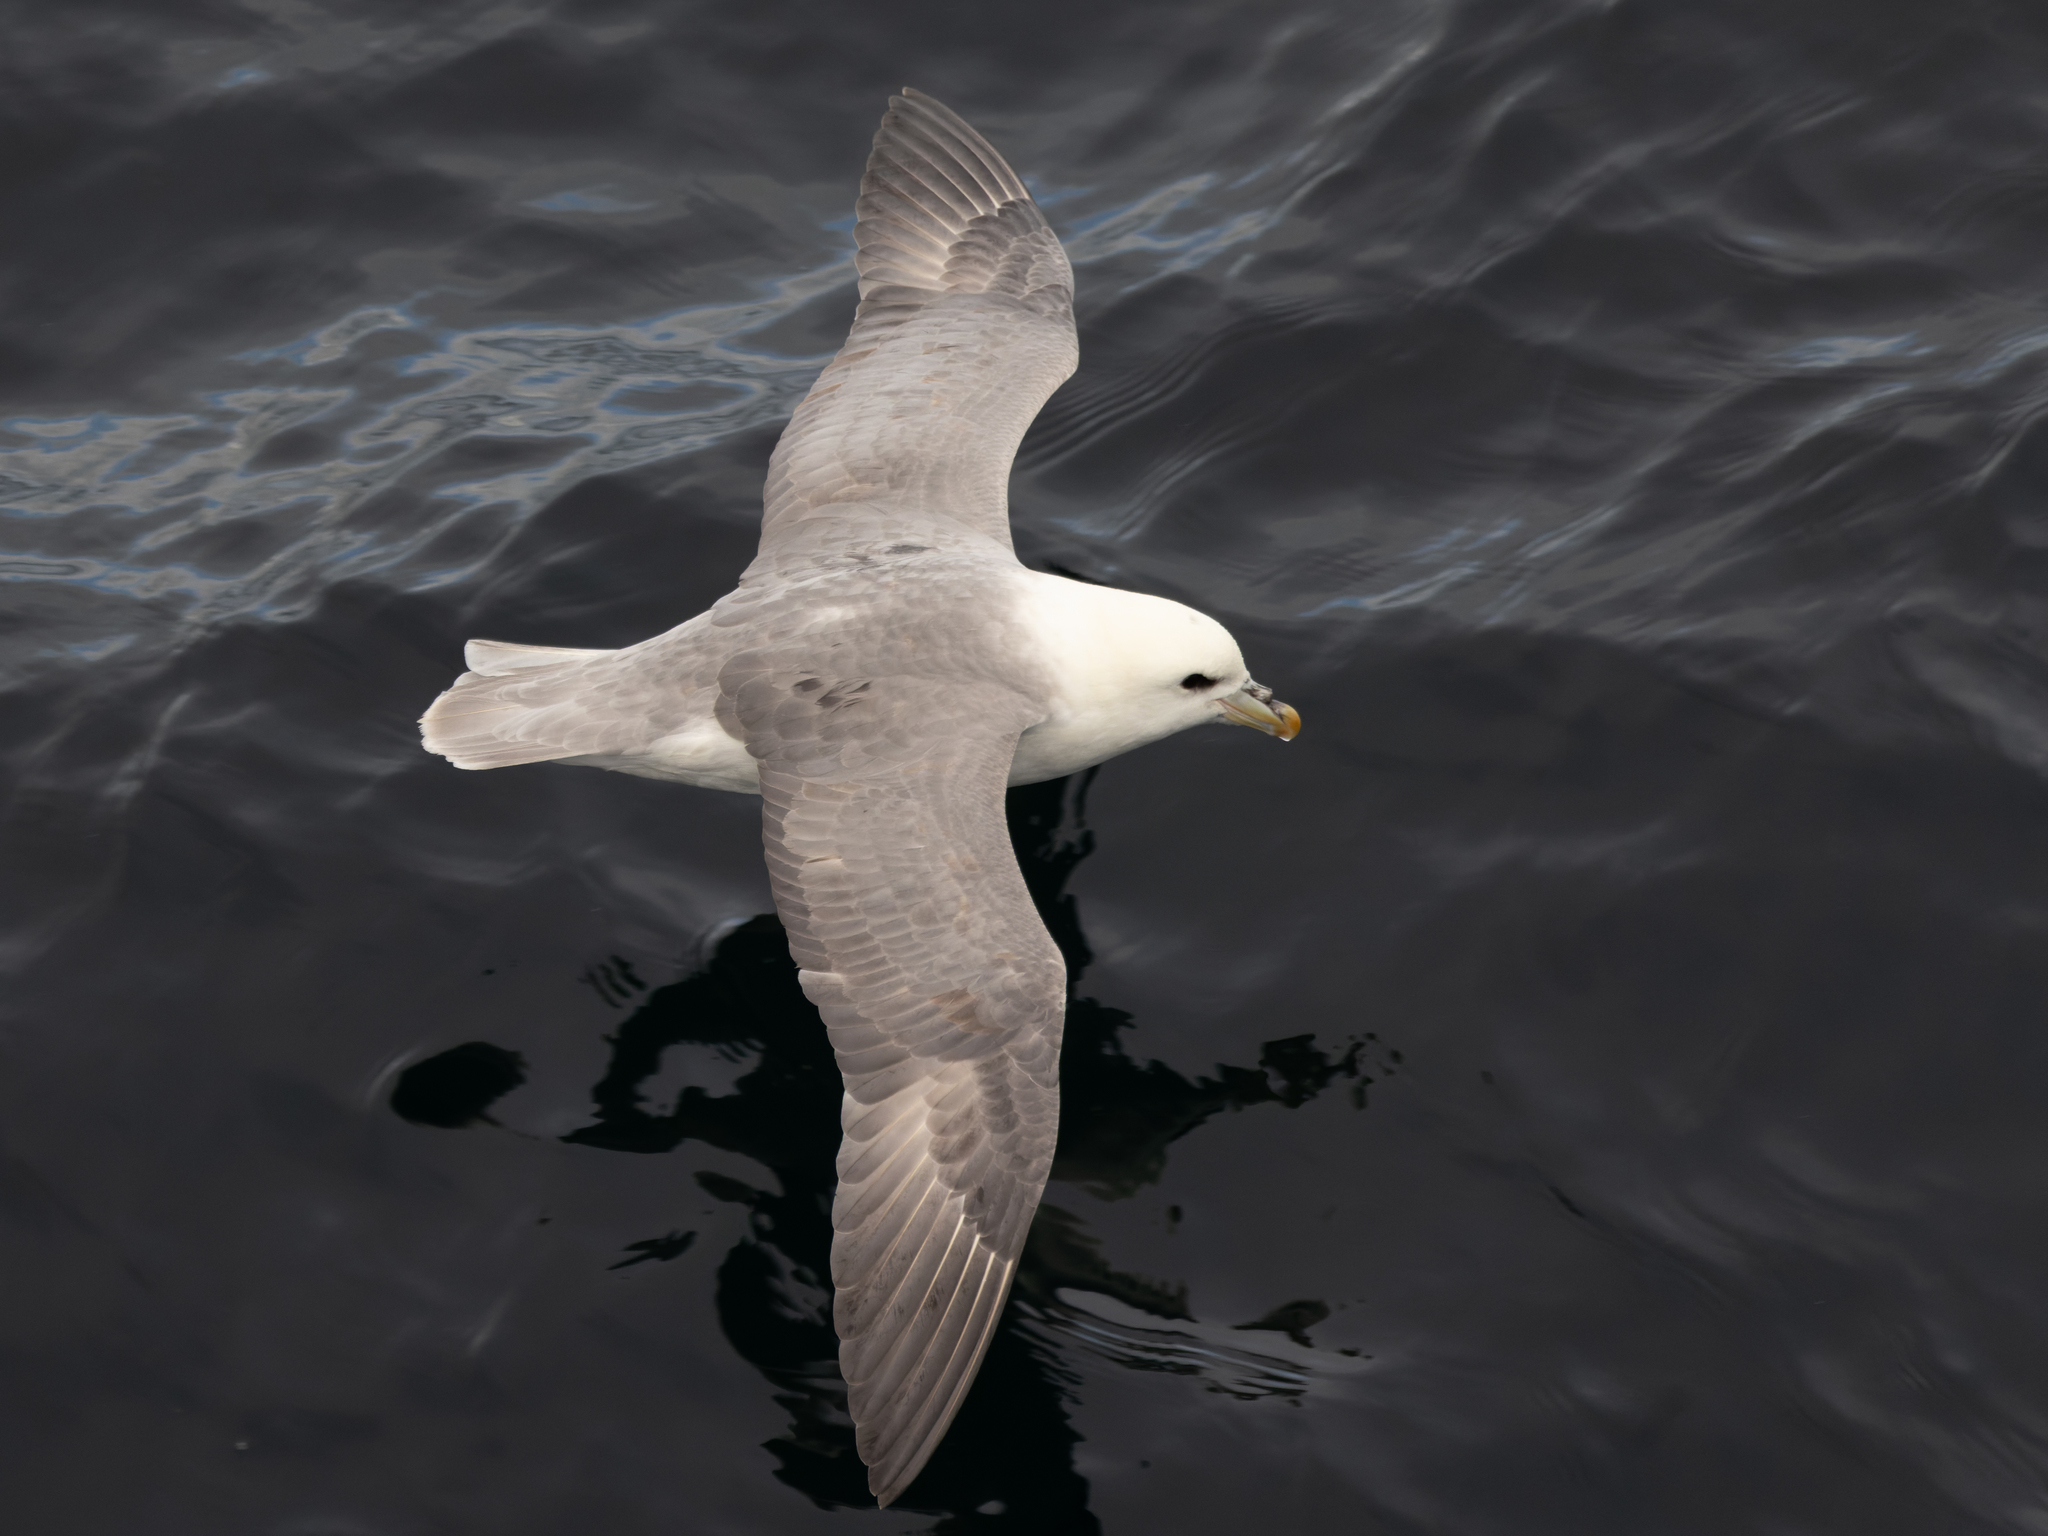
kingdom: Animalia
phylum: Chordata
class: Aves
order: Procellariiformes
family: Procellariidae
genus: Fulmarus
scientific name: Fulmarus glacialis
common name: Northern fulmar
